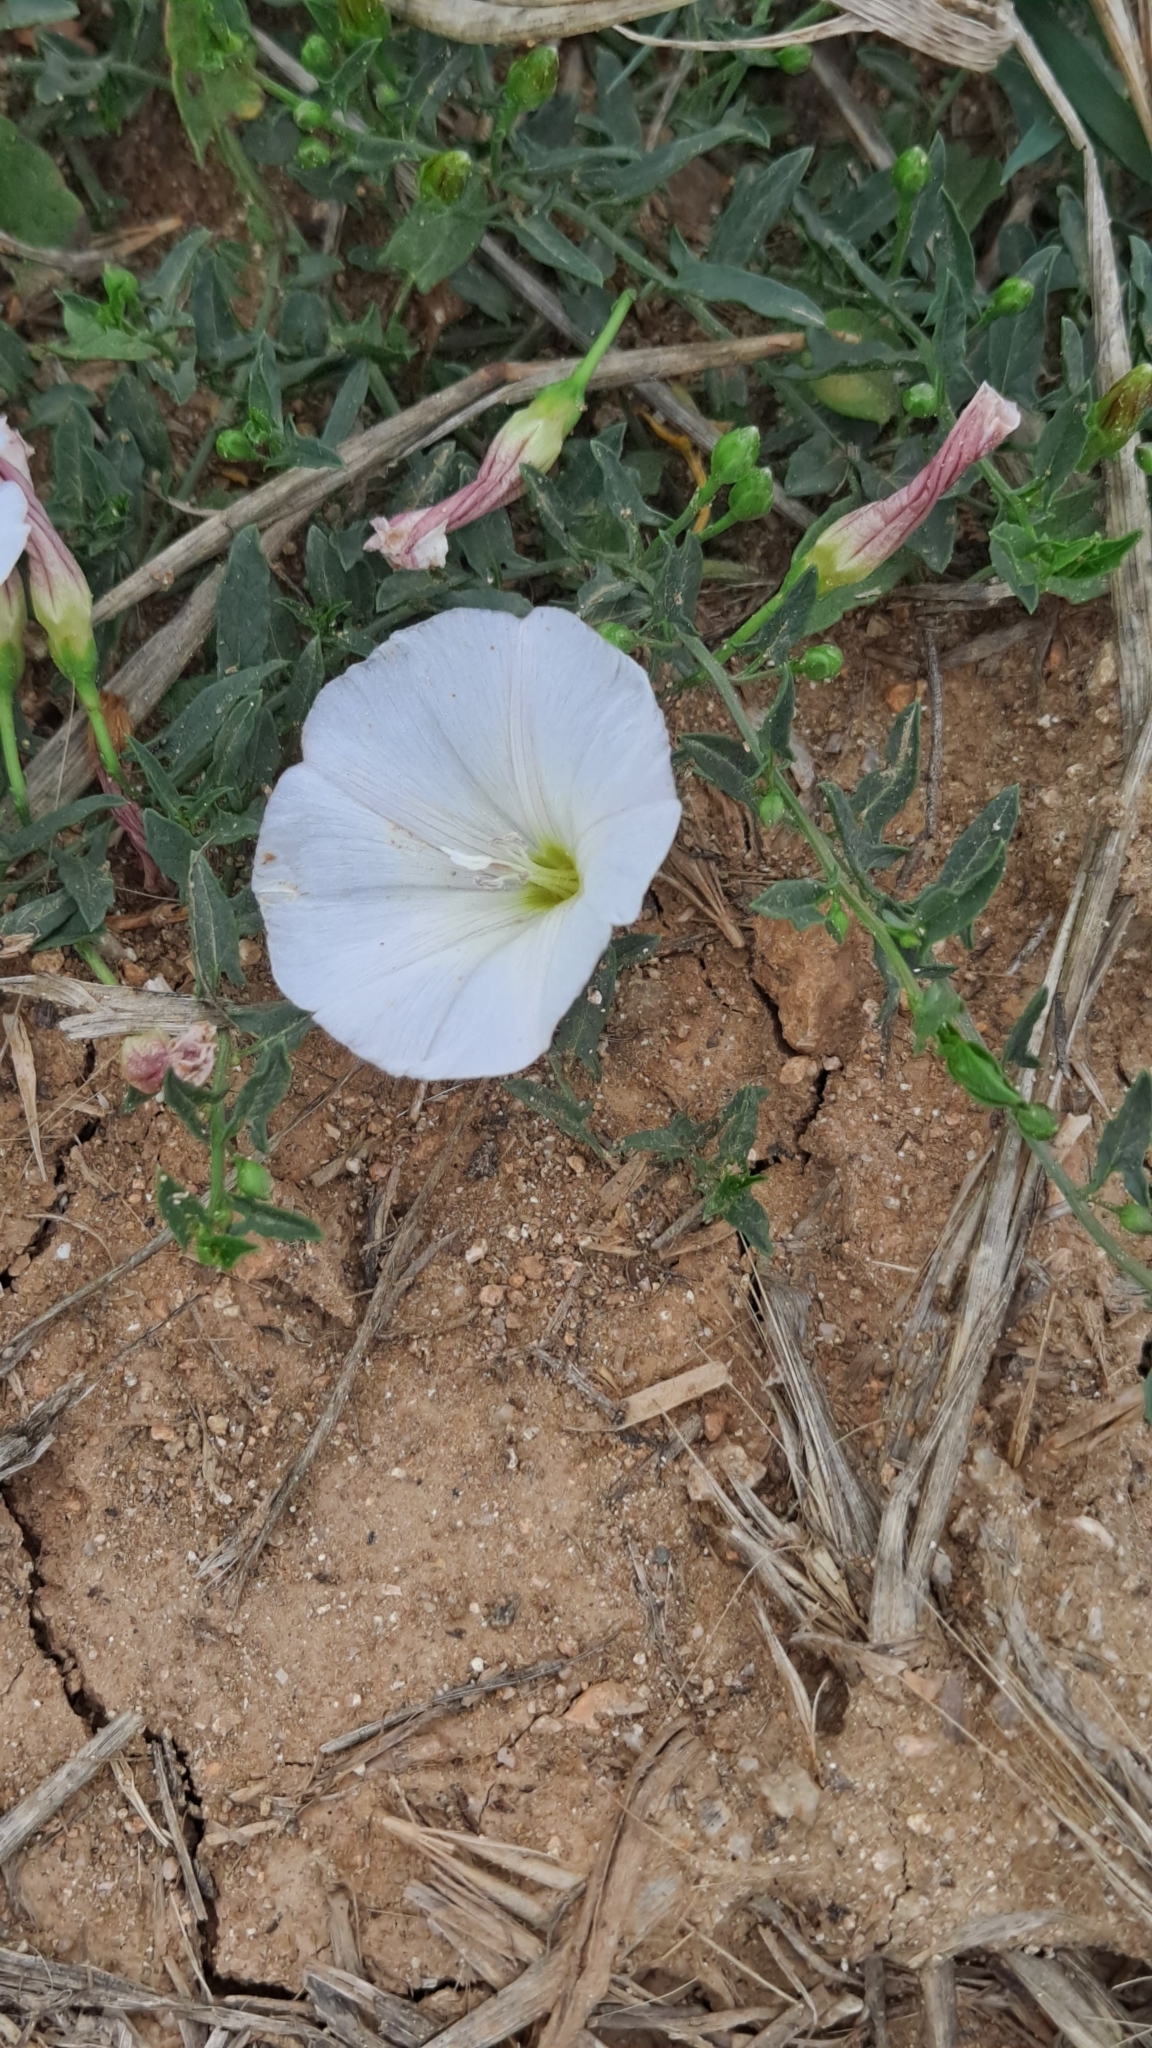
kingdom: Plantae
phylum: Tracheophyta
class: Magnoliopsida
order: Solanales
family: Convolvulaceae
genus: Convolvulus
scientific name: Convolvulus arvensis
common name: Field bindweed
